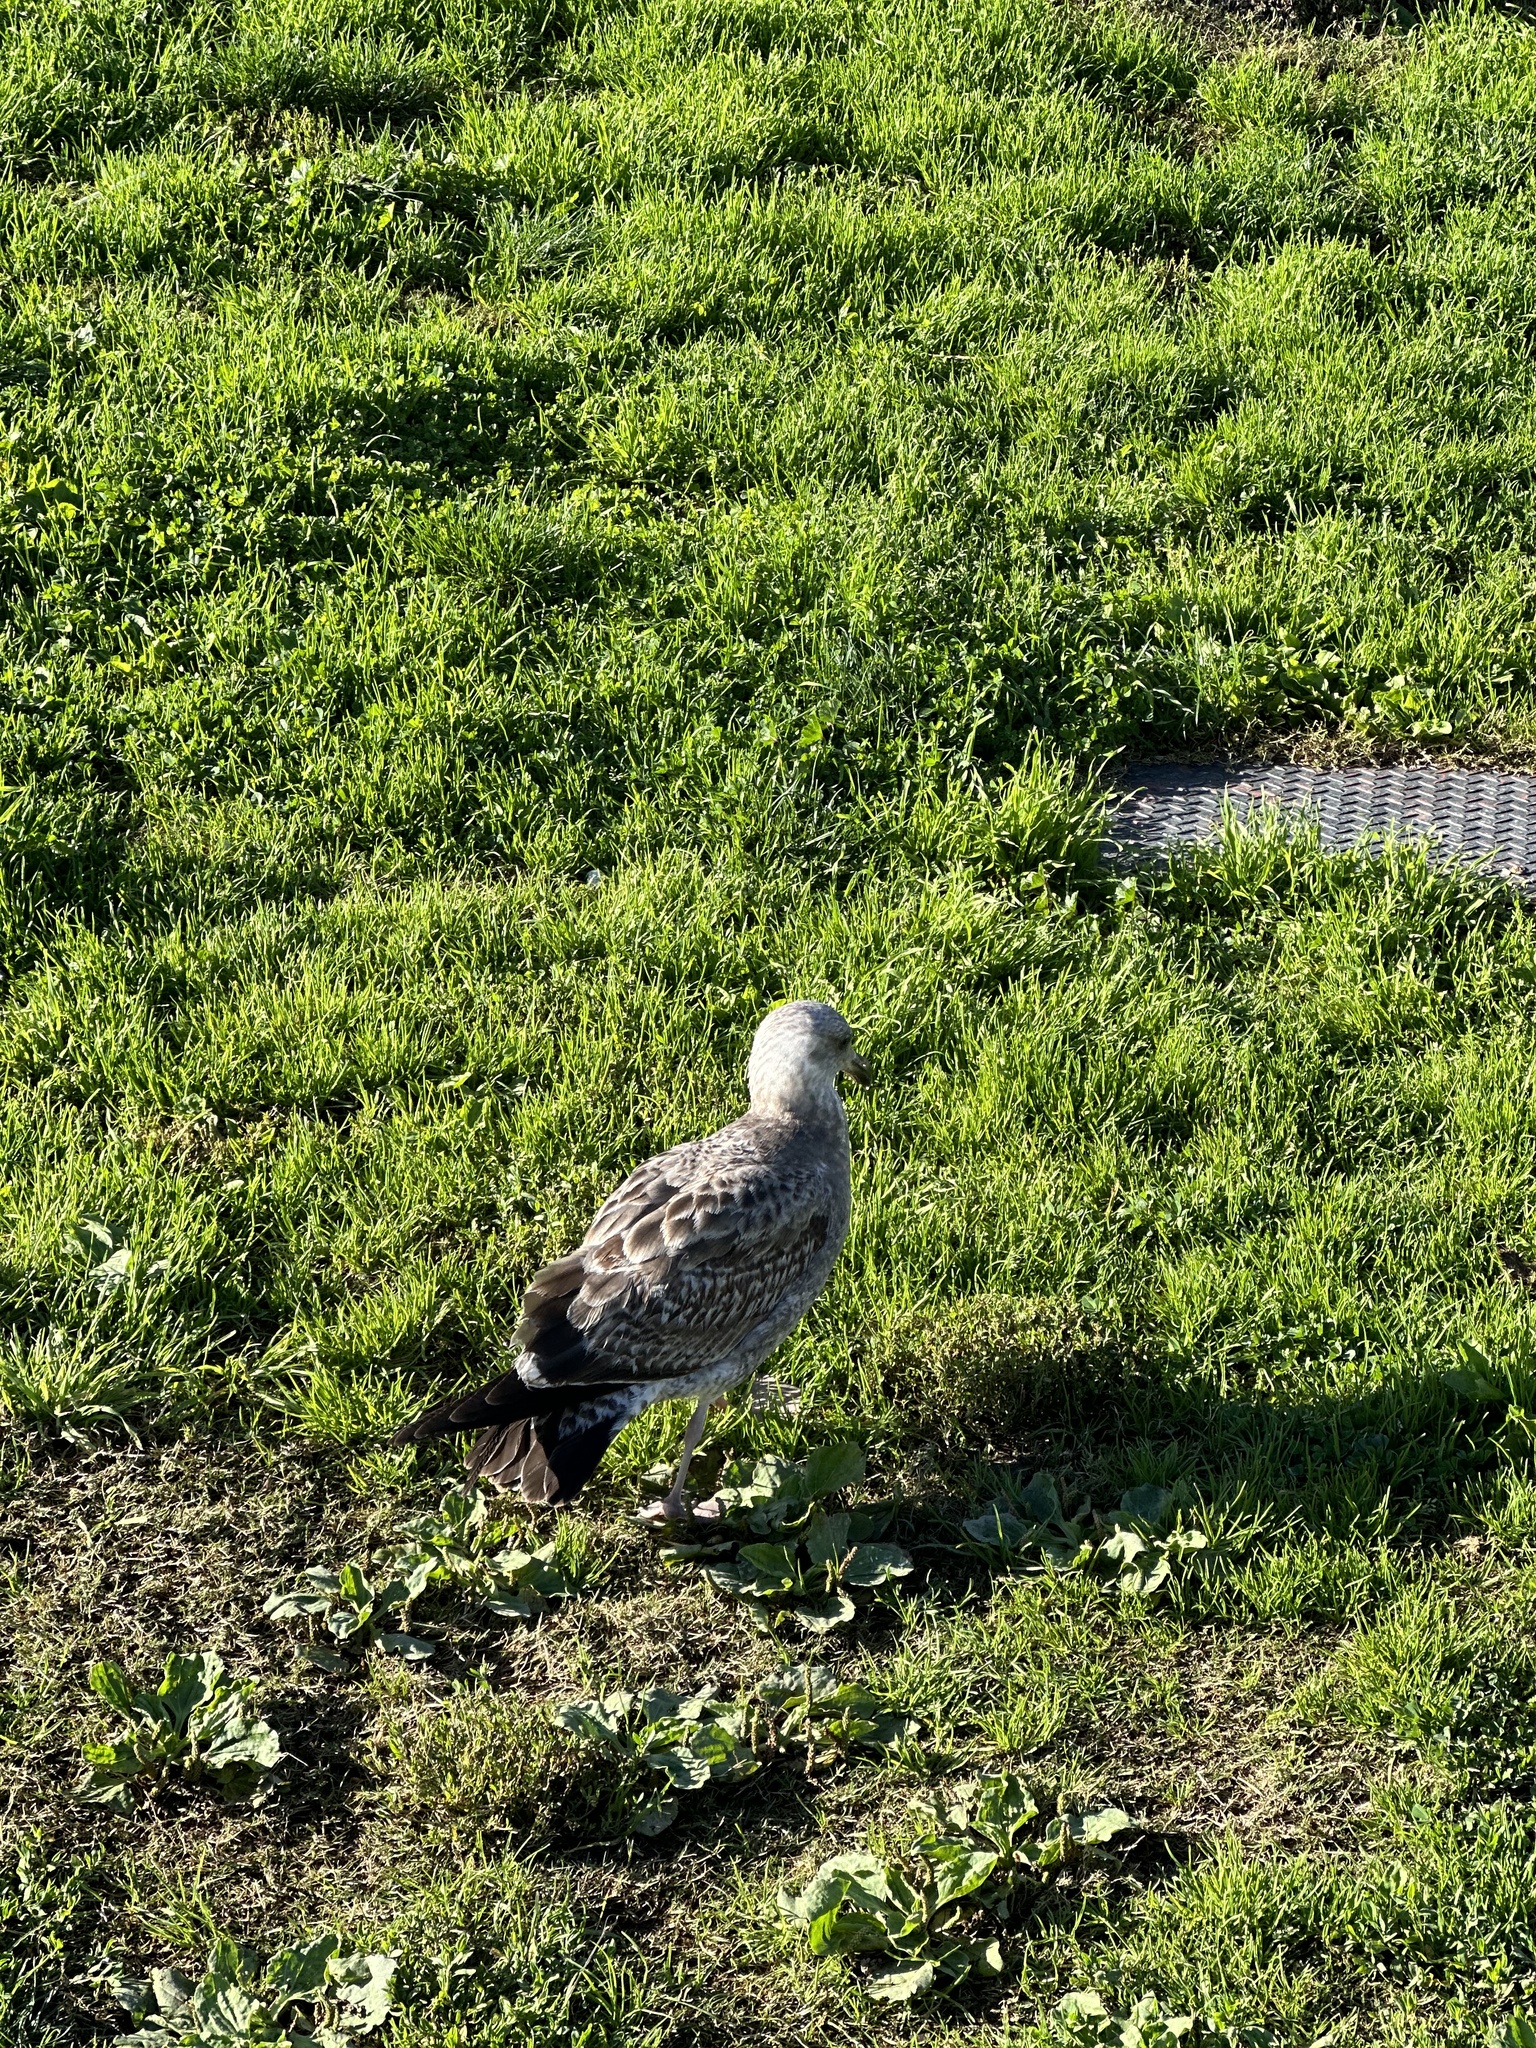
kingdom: Animalia
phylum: Chordata
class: Aves
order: Charadriiformes
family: Laridae
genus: Larus
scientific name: Larus occidentalis
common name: Western gull
